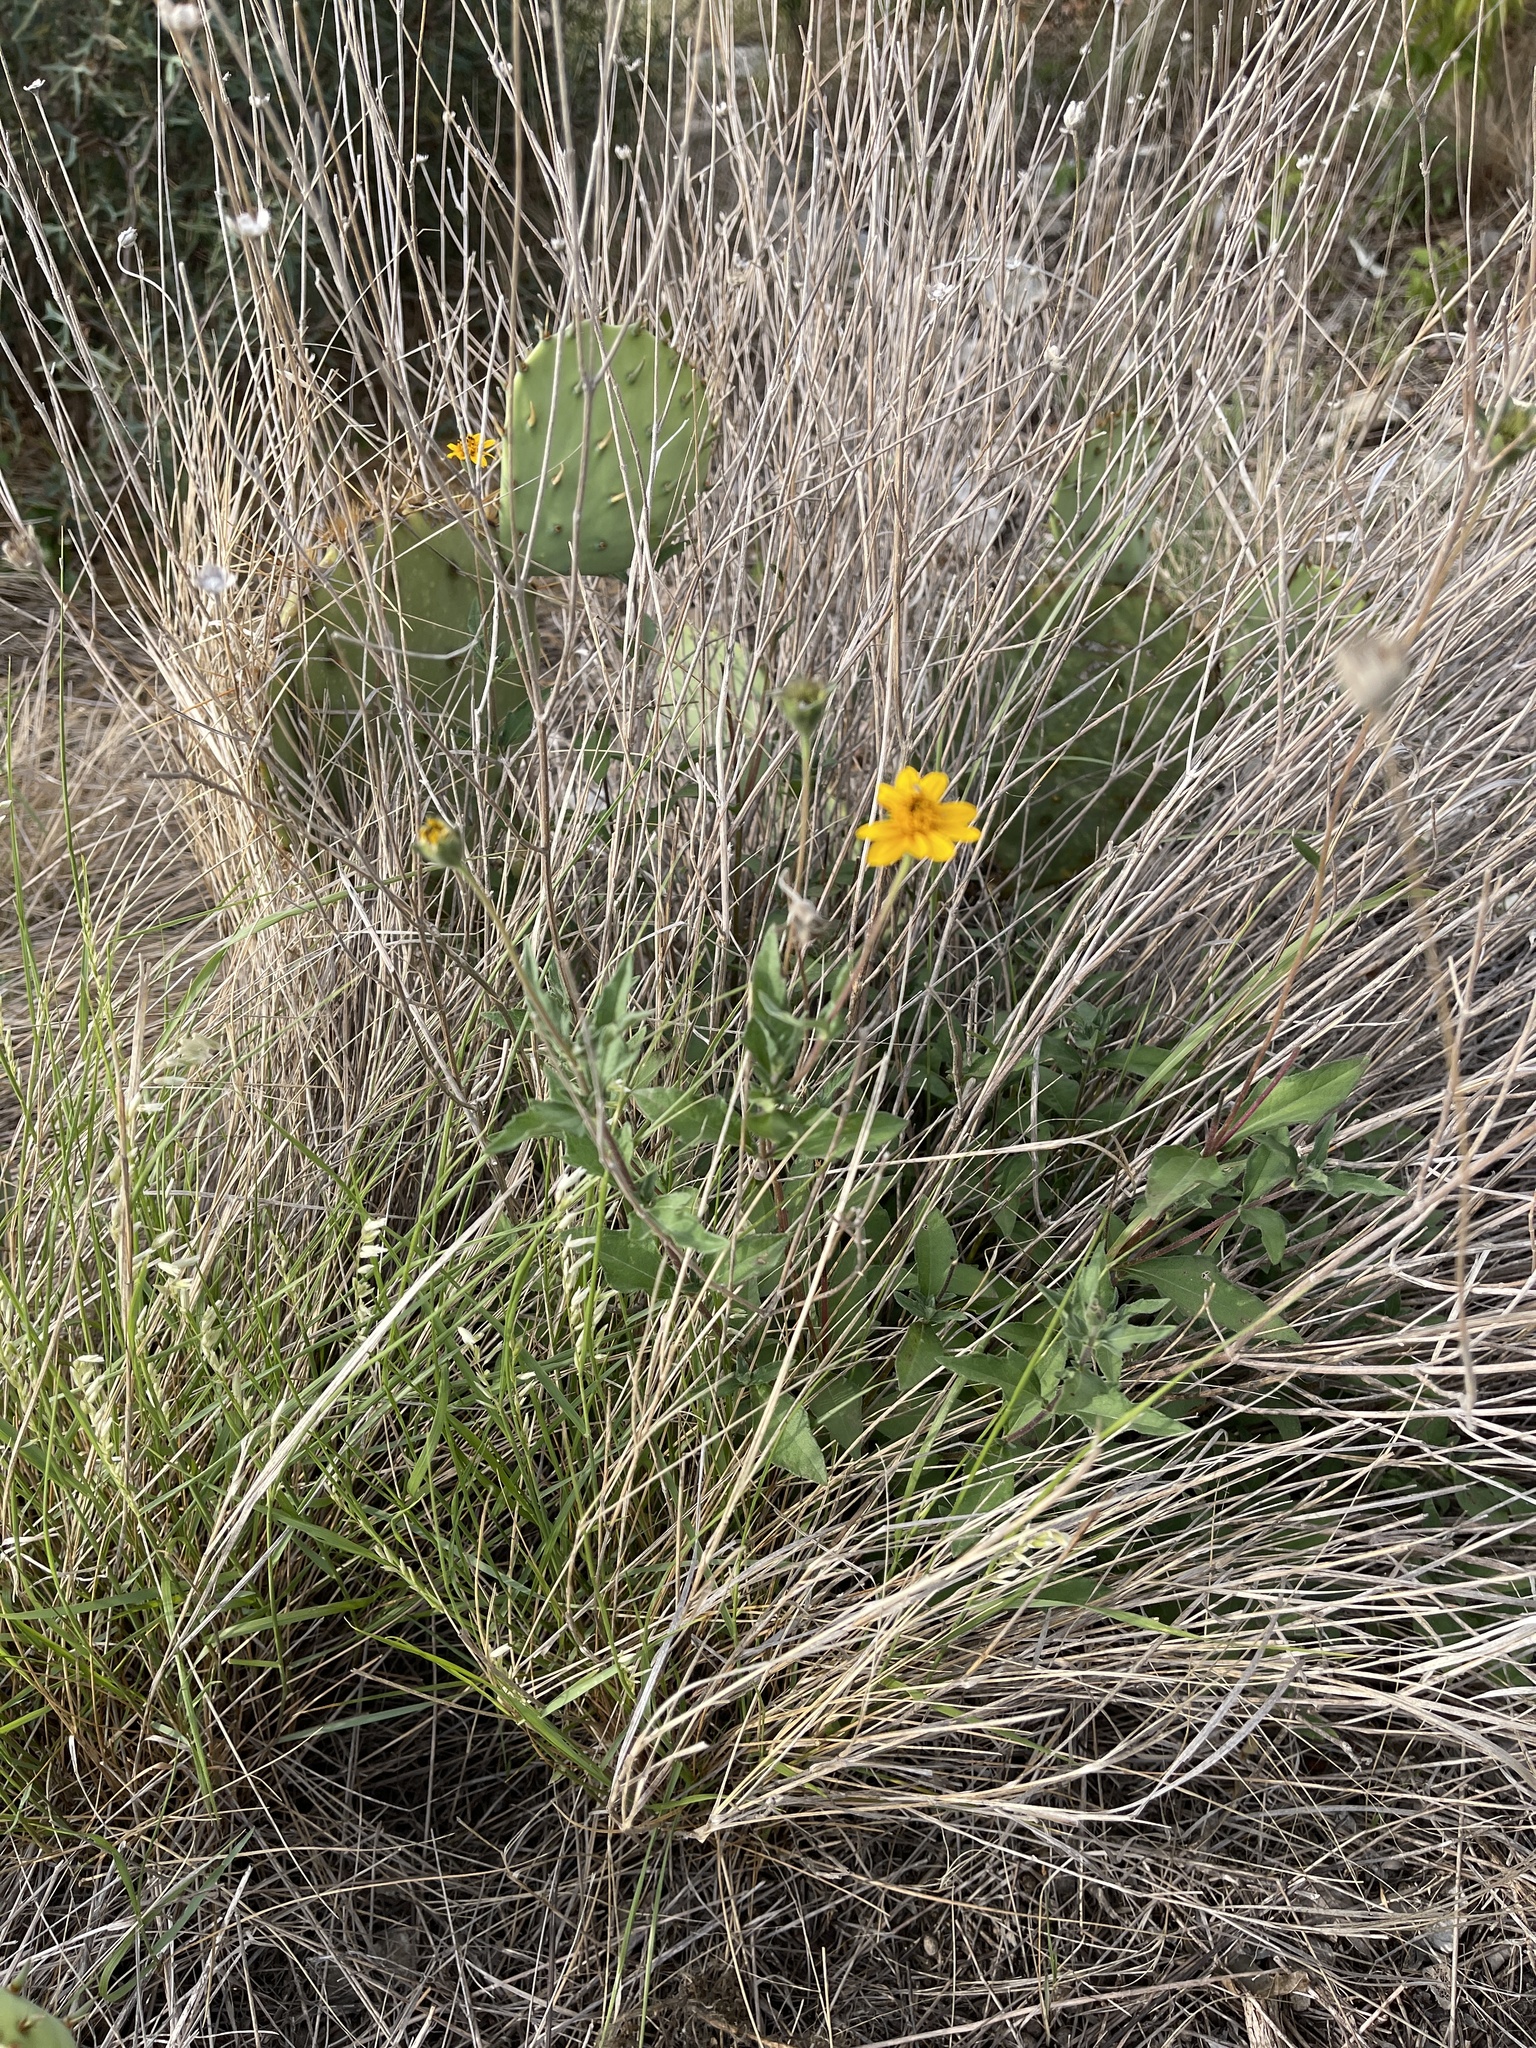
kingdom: Plantae
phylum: Tracheophyta
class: Magnoliopsida
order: Asterales
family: Asteraceae
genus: Wedelia
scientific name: Wedelia acapulcensis
